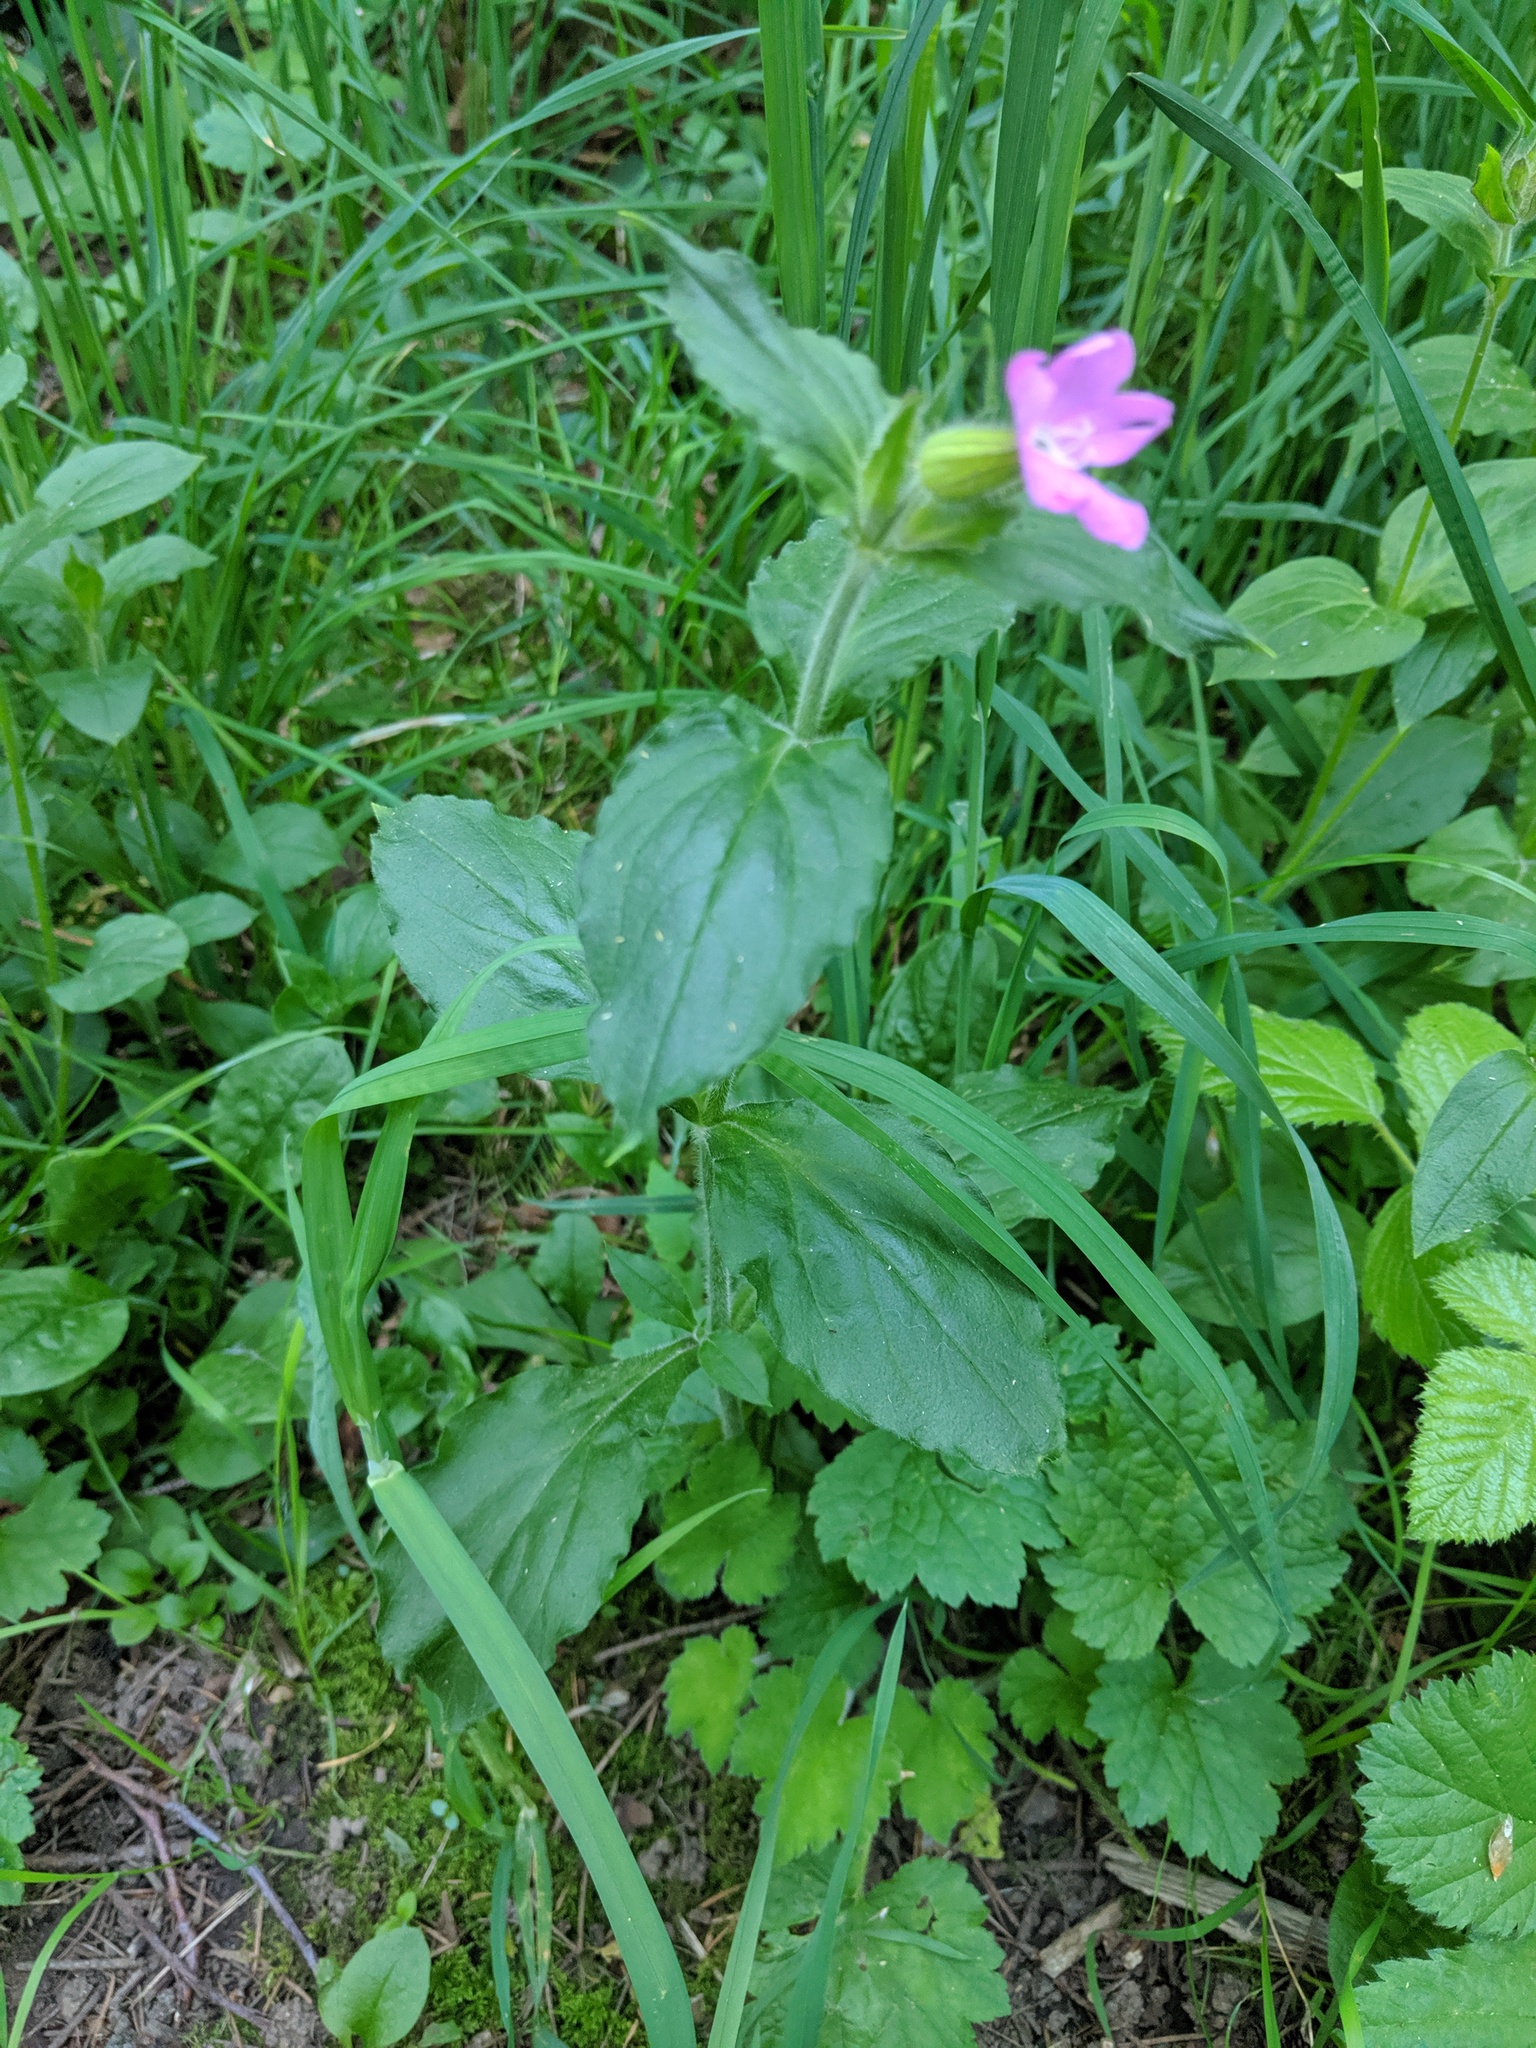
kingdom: Plantae
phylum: Tracheophyta
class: Magnoliopsida
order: Caryophyllales
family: Caryophyllaceae
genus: Silene
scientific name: Silene dioica
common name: Red campion
